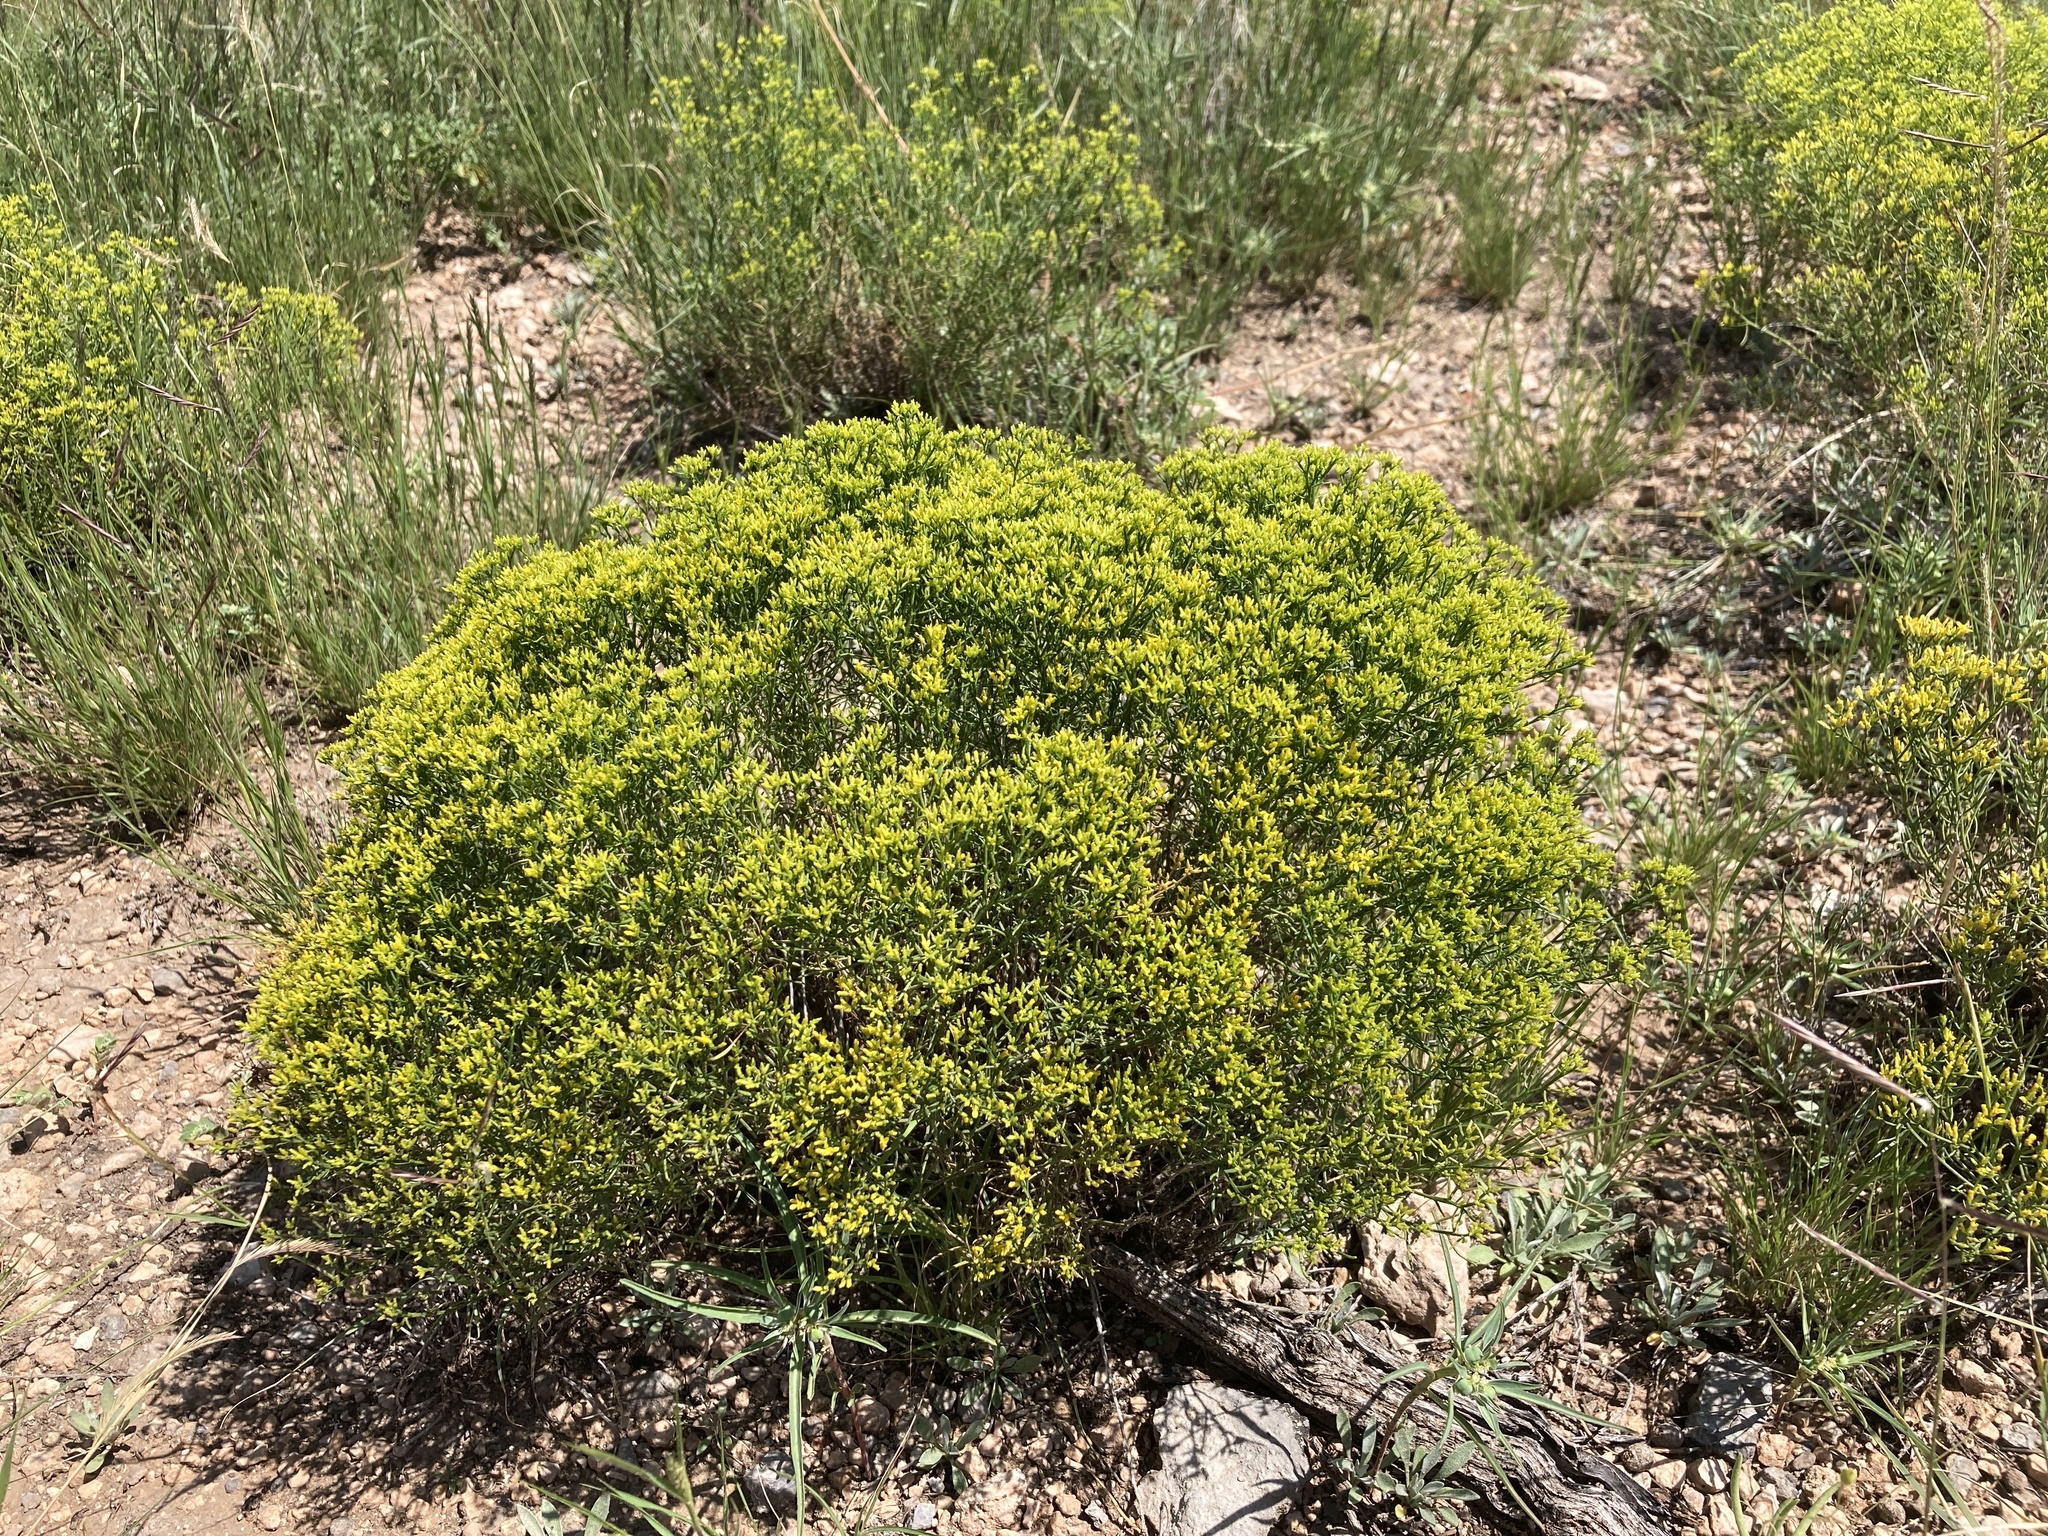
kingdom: Plantae
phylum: Tracheophyta
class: Magnoliopsida
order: Asterales
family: Asteraceae
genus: Gutierrezia
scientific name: Gutierrezia microcephala
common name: Thread snakeweed
